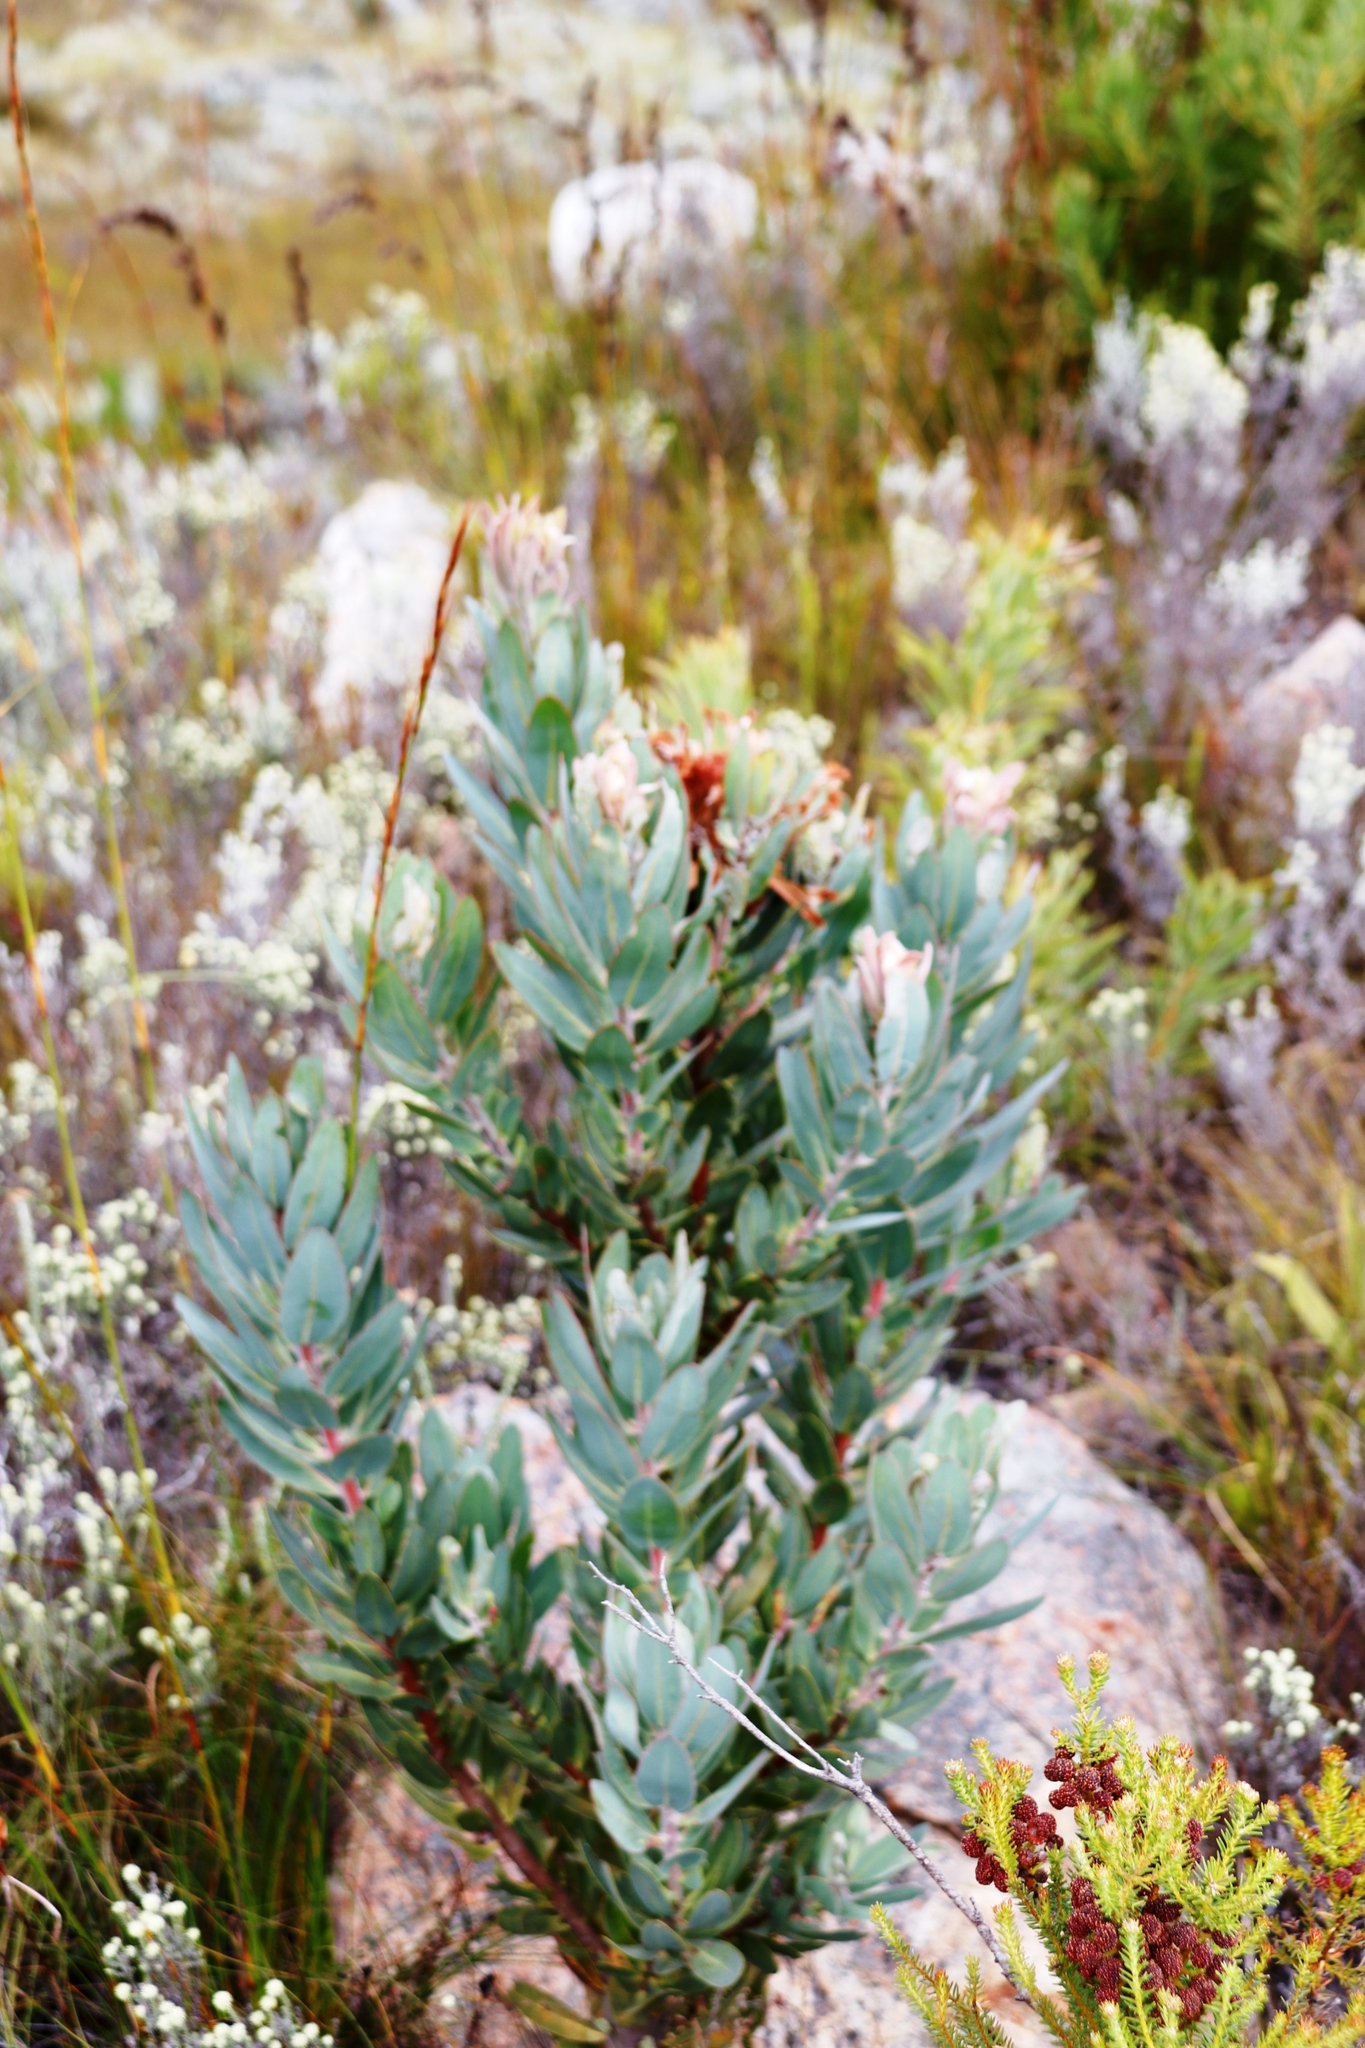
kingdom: Plantae
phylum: Tracheophyta
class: Magnoliopsida
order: Proteales
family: Proteaceae
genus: Protea
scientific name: Protea laurifolia
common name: Grey-leaf sugarbsh
